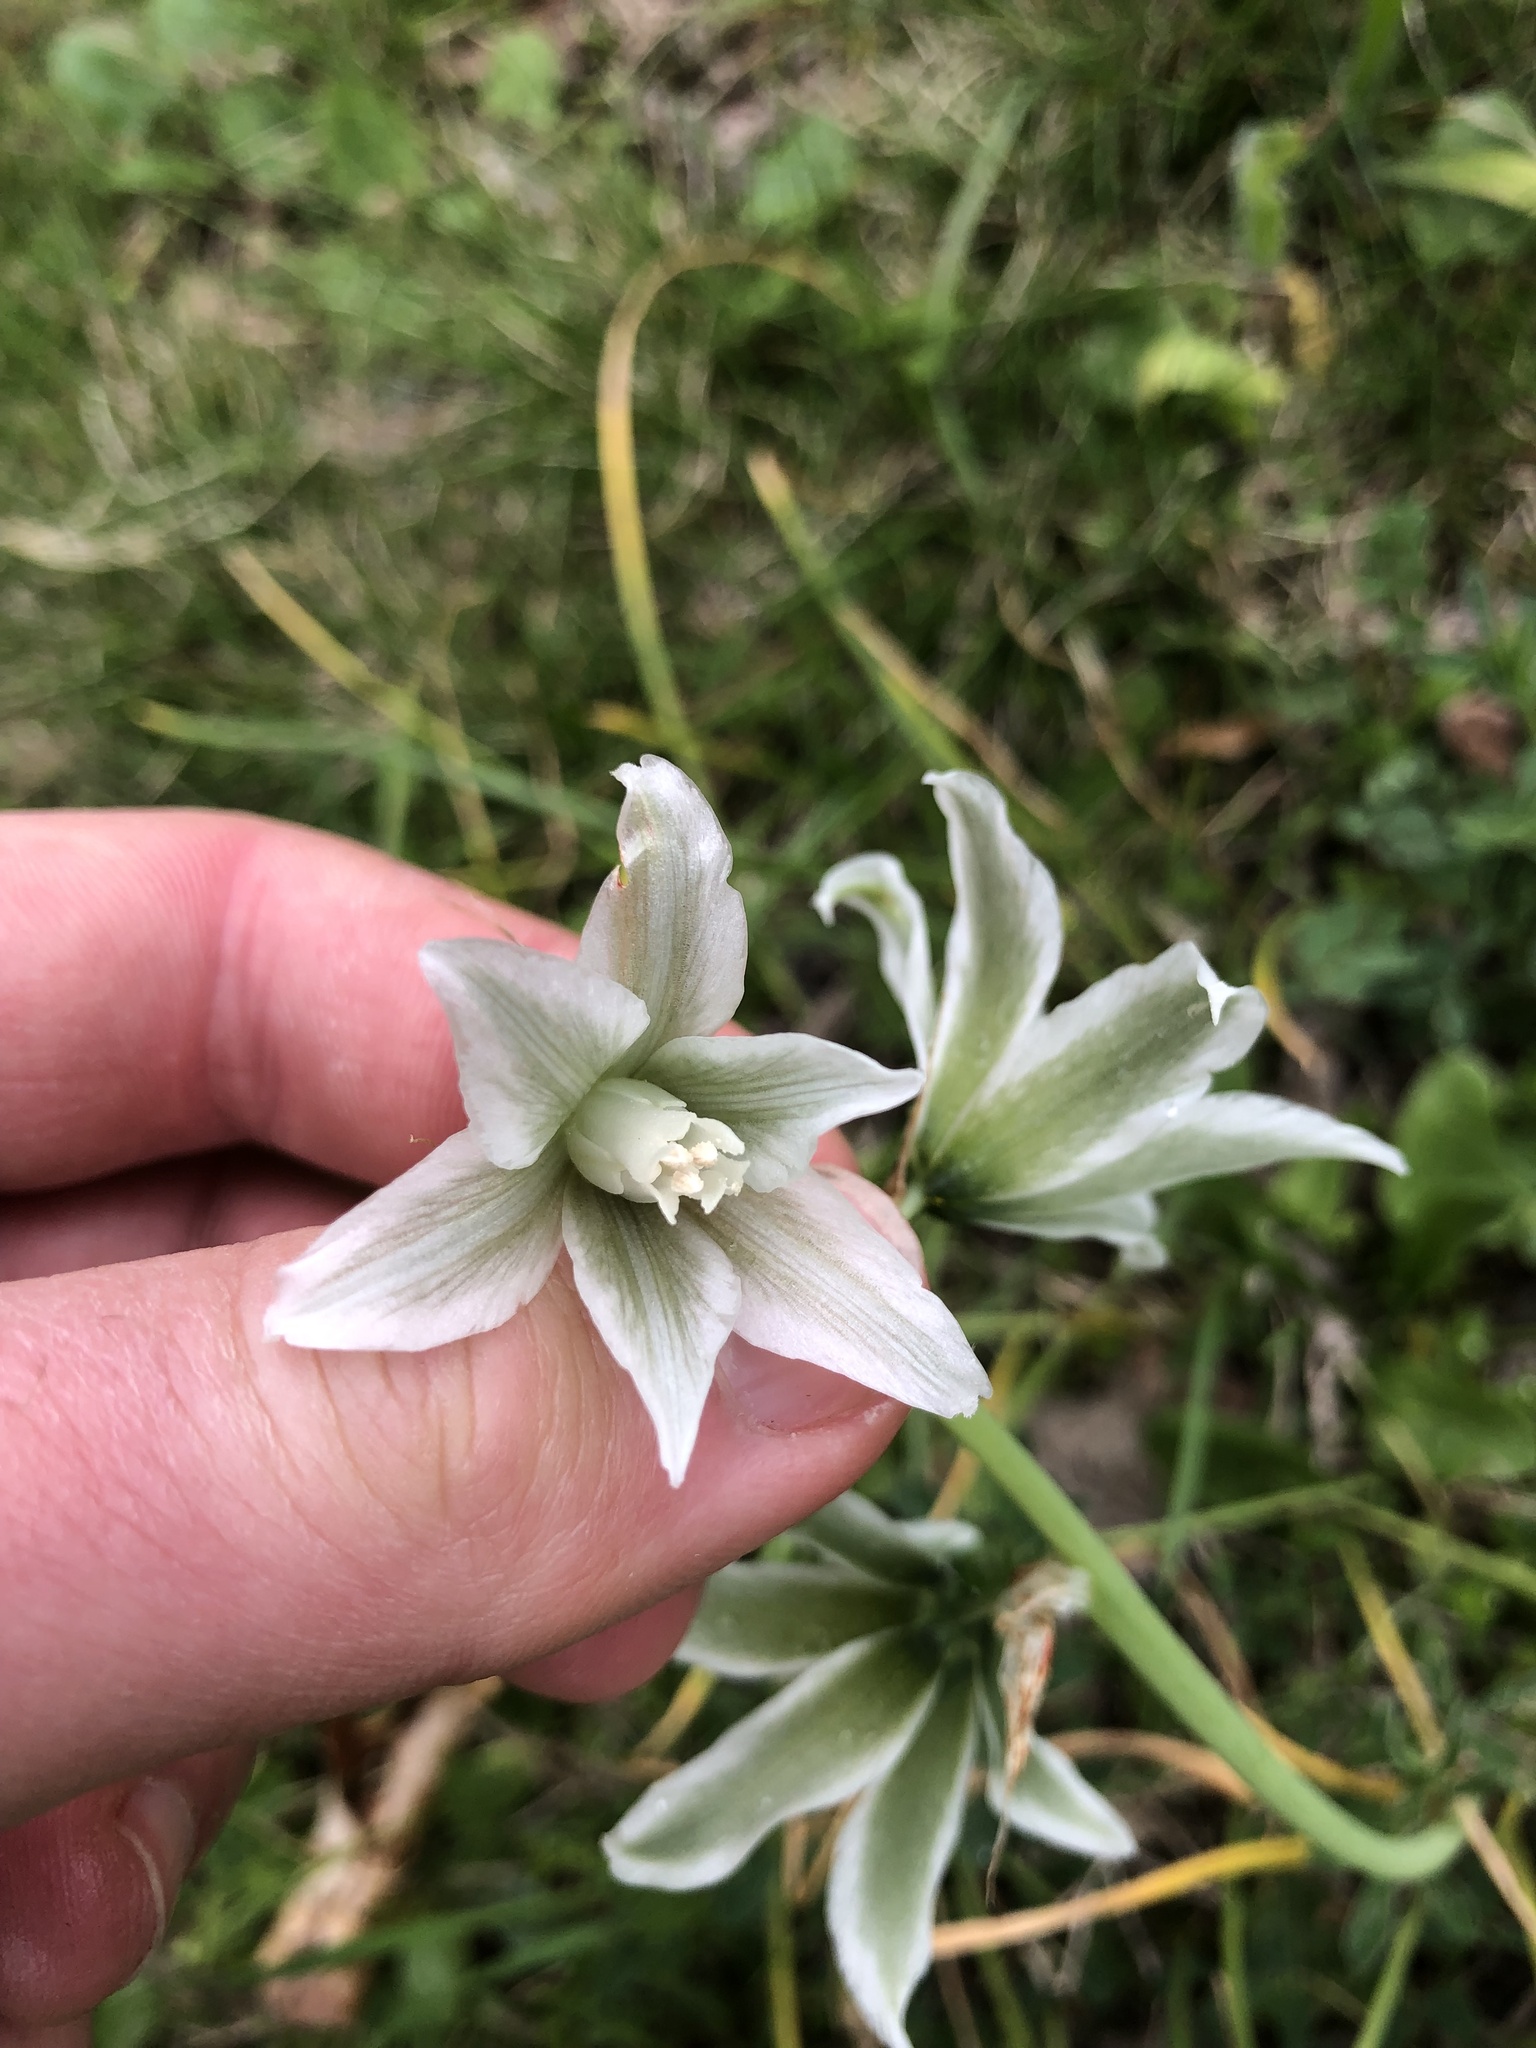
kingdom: Plantae
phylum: Tracheophyta
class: Liliopsida
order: Asparagales
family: Asparagaceae
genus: Ornithogalum
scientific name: Ornithogalum boucheanum
